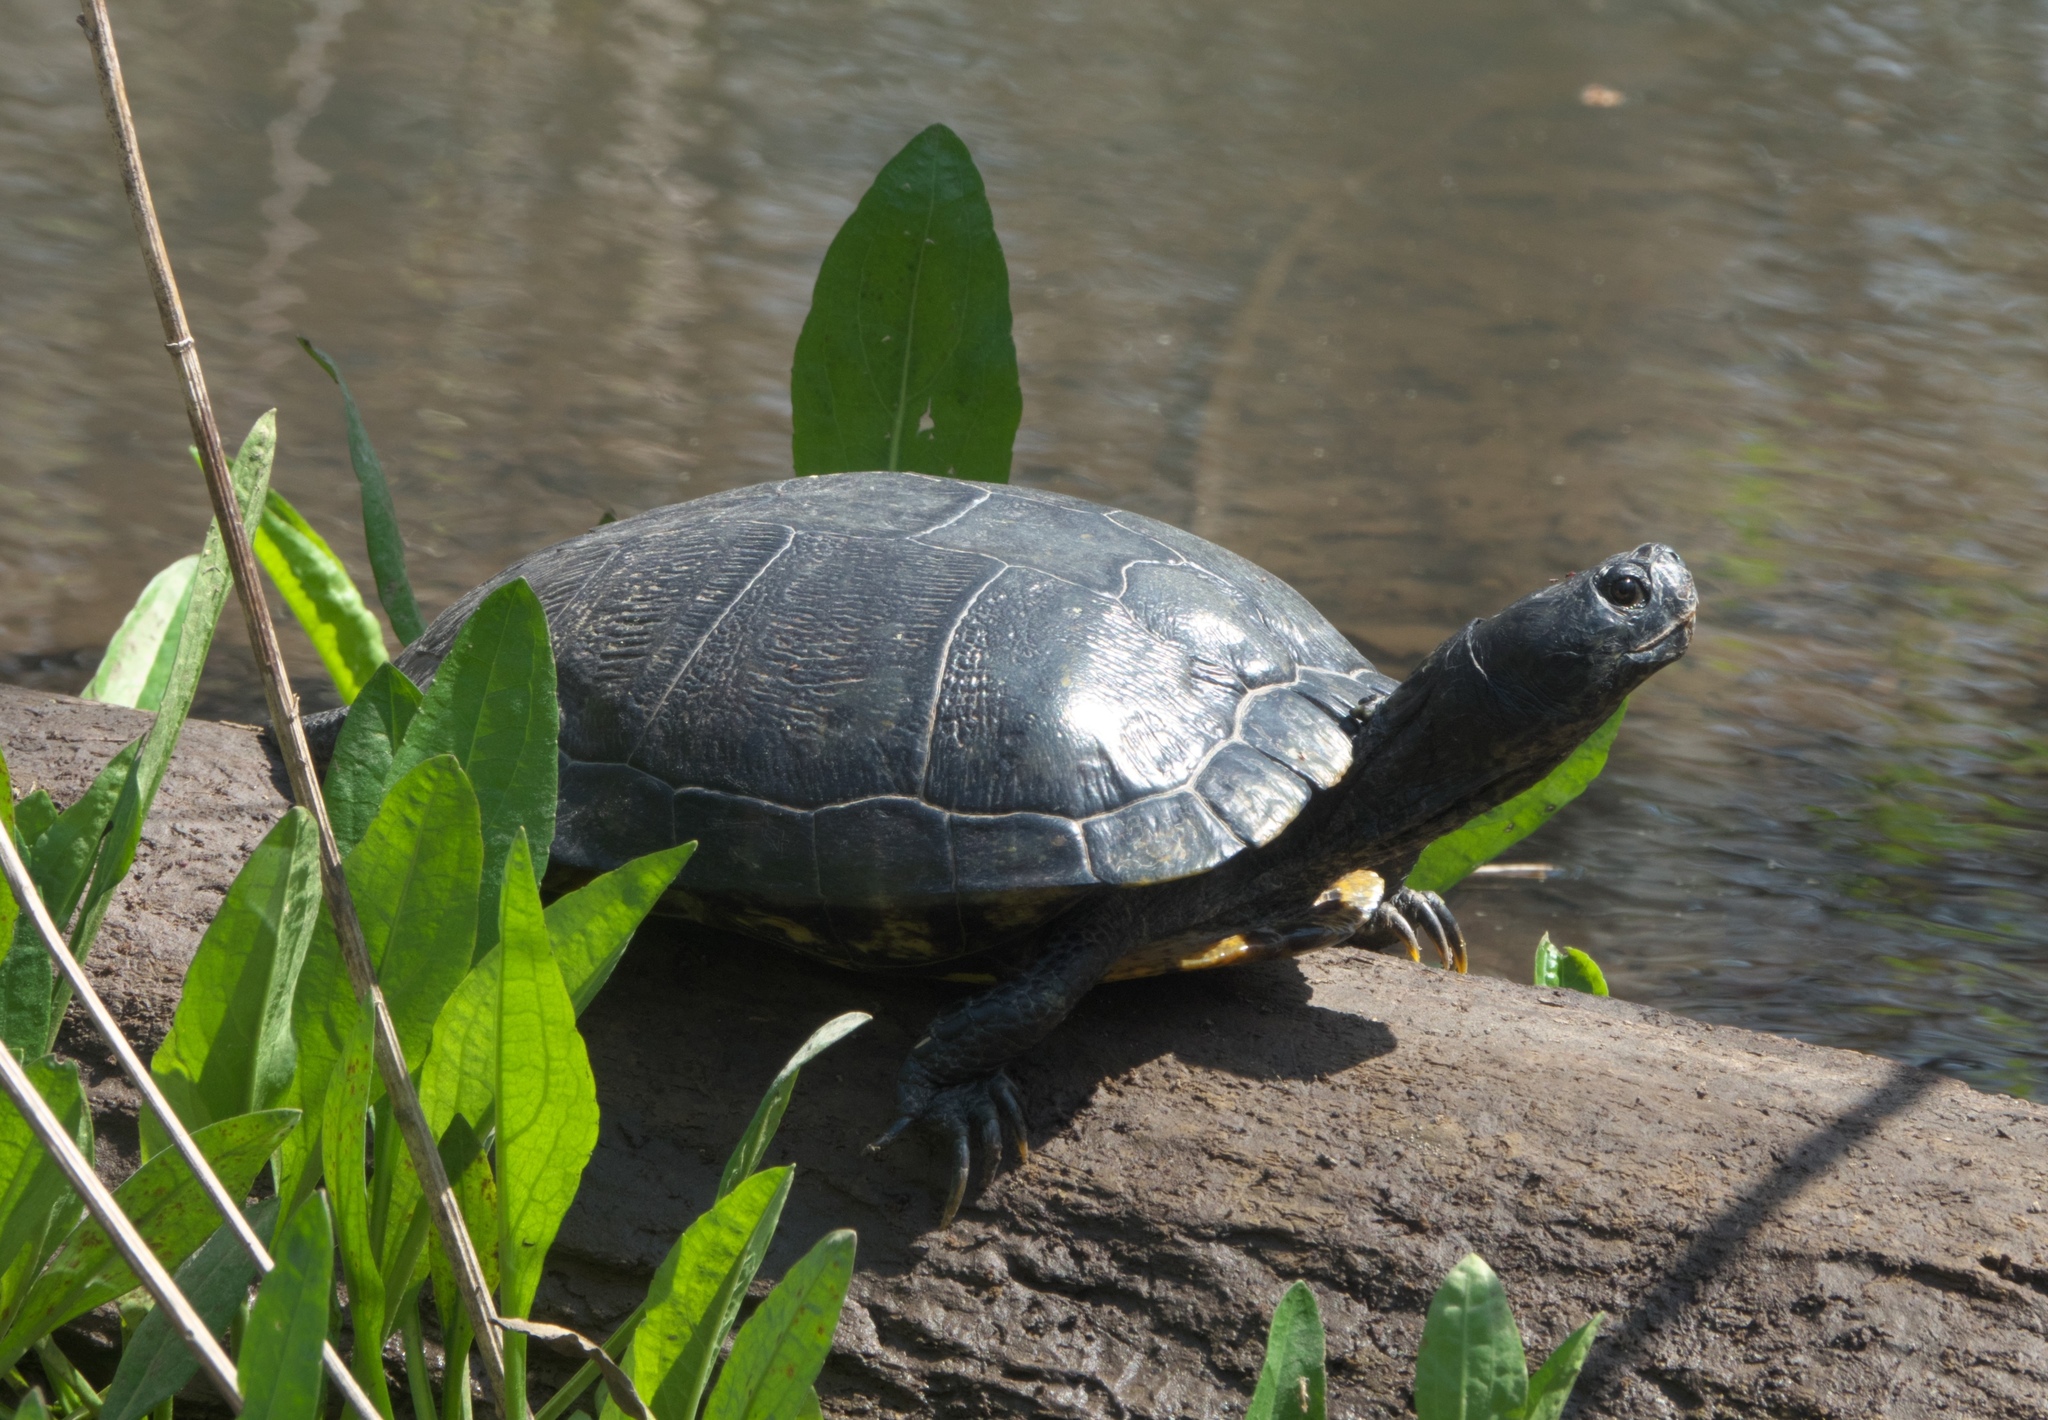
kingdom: Animalia
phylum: Chordata
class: Testudines
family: Emydidae
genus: Trachemys
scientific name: Trachemys scripta
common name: Slider
